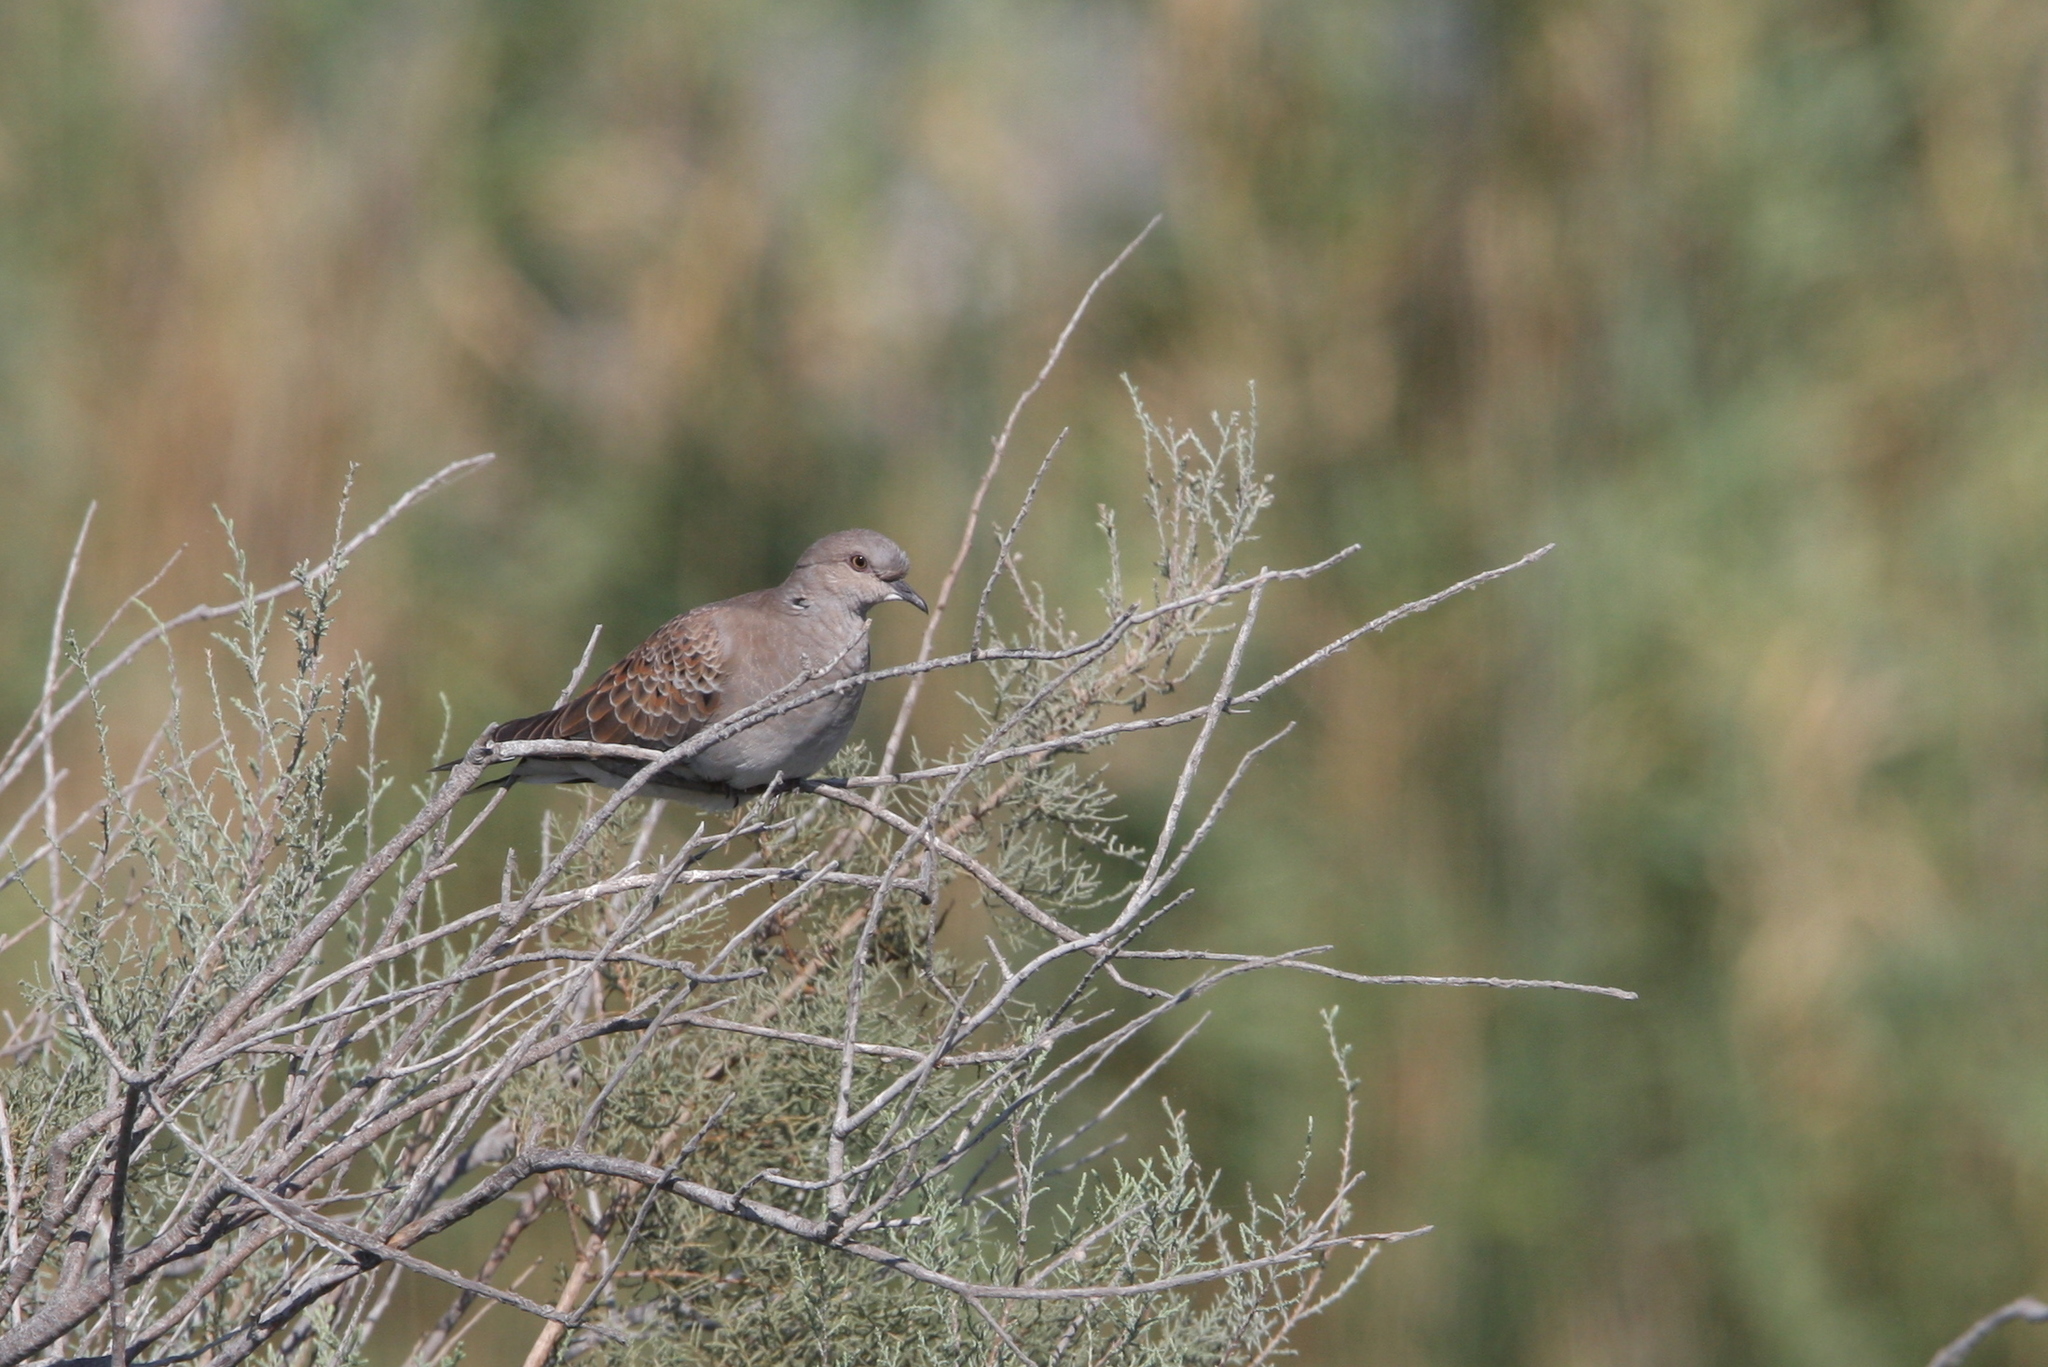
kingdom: Animalia
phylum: Chordata
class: Aves
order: Columbiformes
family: Columbidae
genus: Streptopelia
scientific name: Streptopelia turtur
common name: European turtle dove
